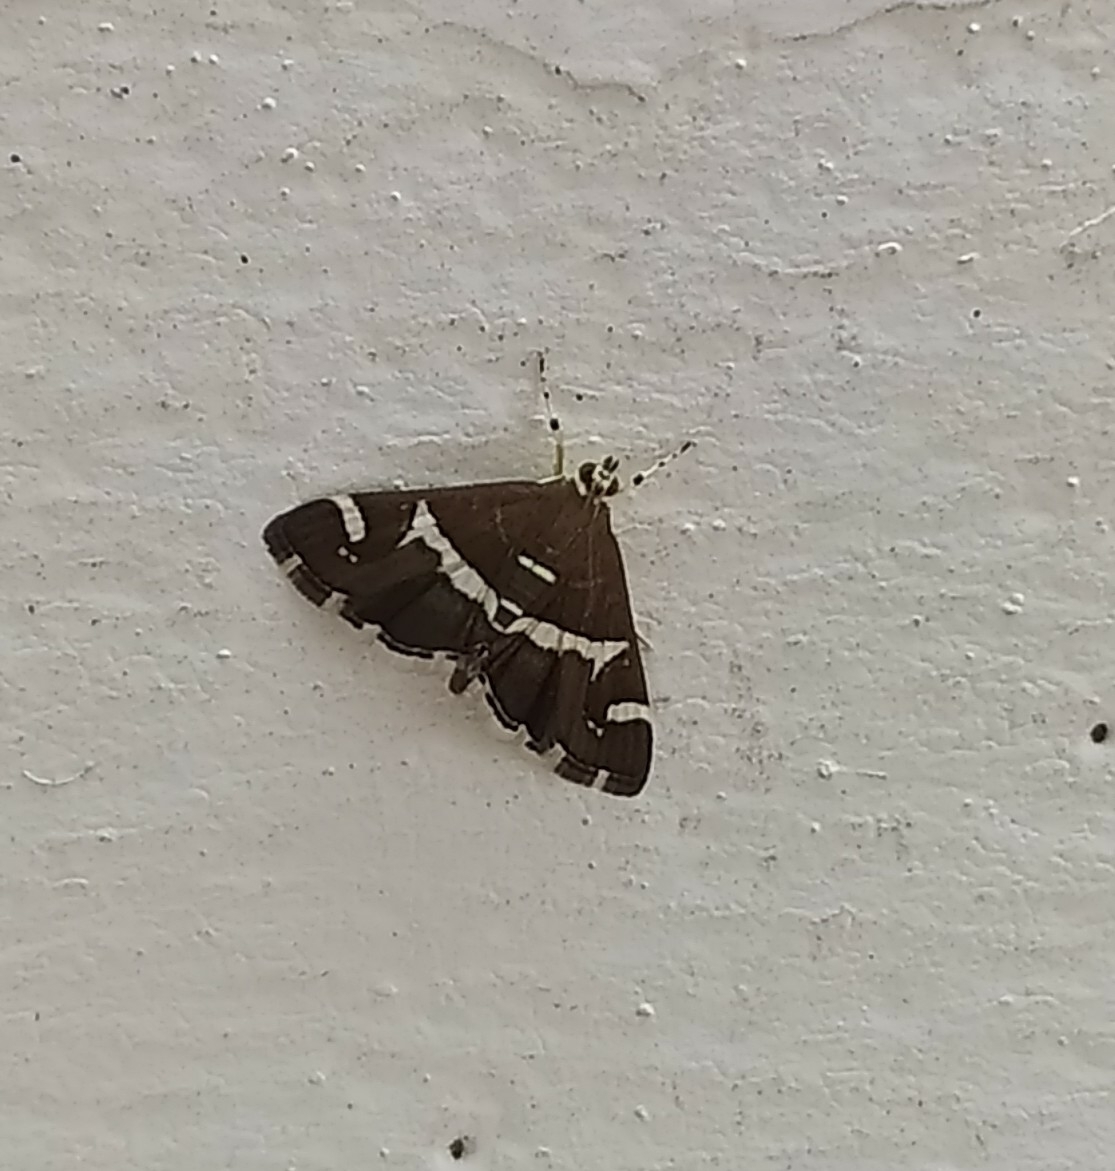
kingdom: Animalia
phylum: Arthropoda
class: Insecta
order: Lepidoptera
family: Crambidae
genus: Spoladea
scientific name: Spoladea recurvalis
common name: Beet webworm moth
